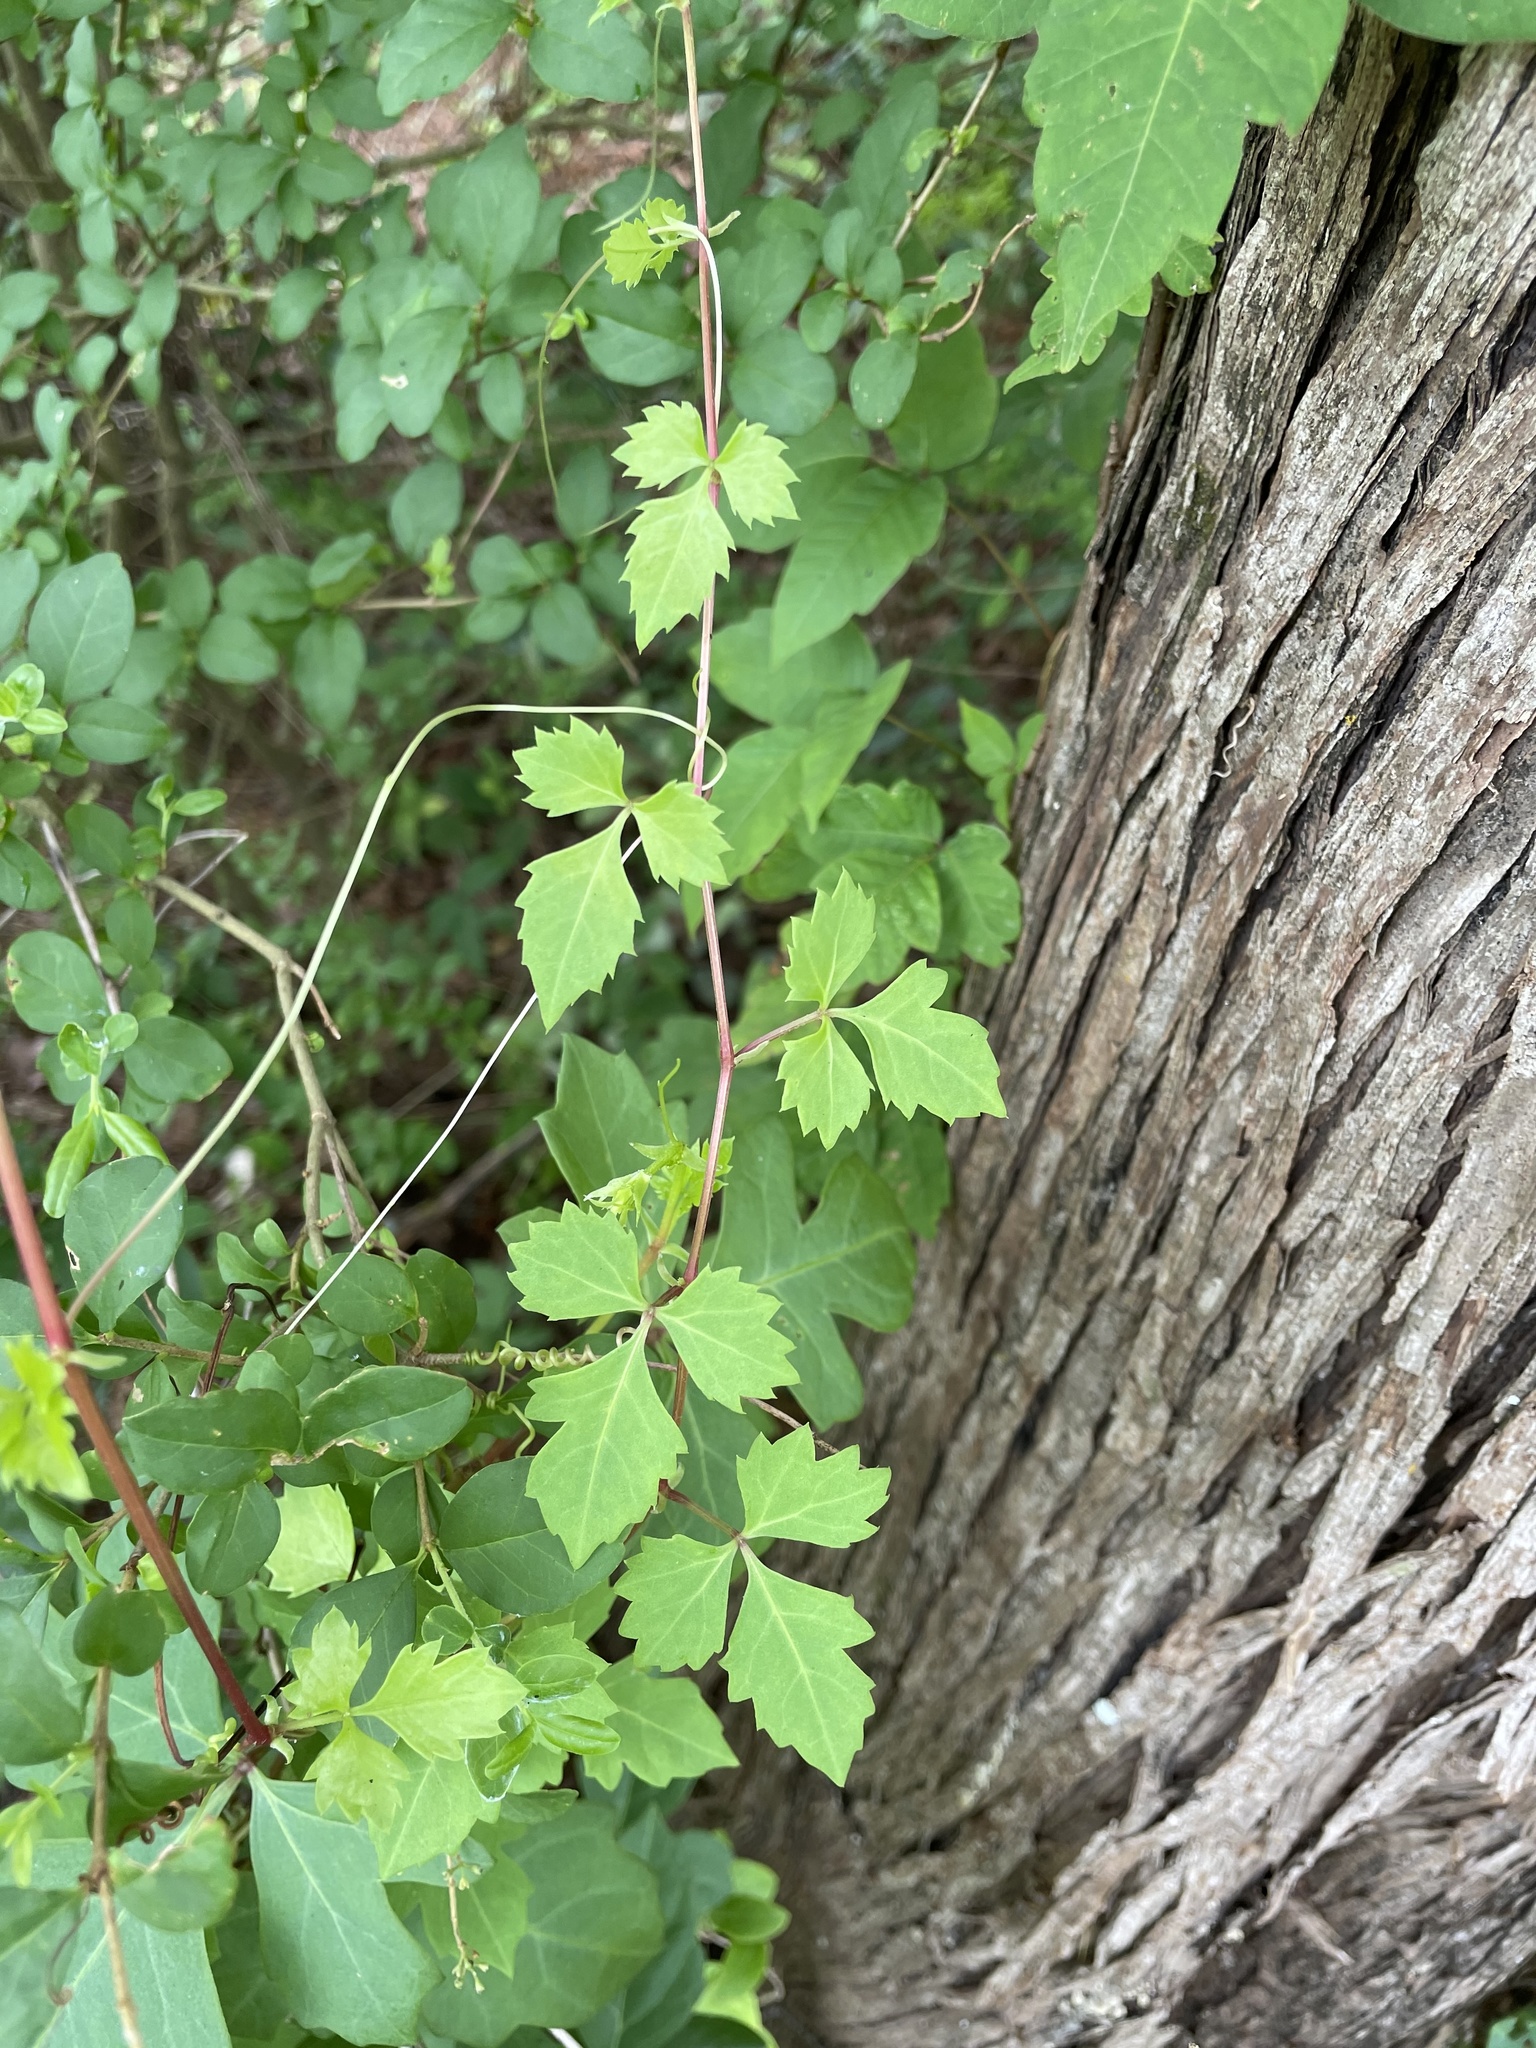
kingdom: Plantae
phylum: Tracheophyta
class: Magnoliopsida
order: Vitales
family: Vitaceae
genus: Cissus
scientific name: Cissus trifoliata
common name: Vine-sorrel
